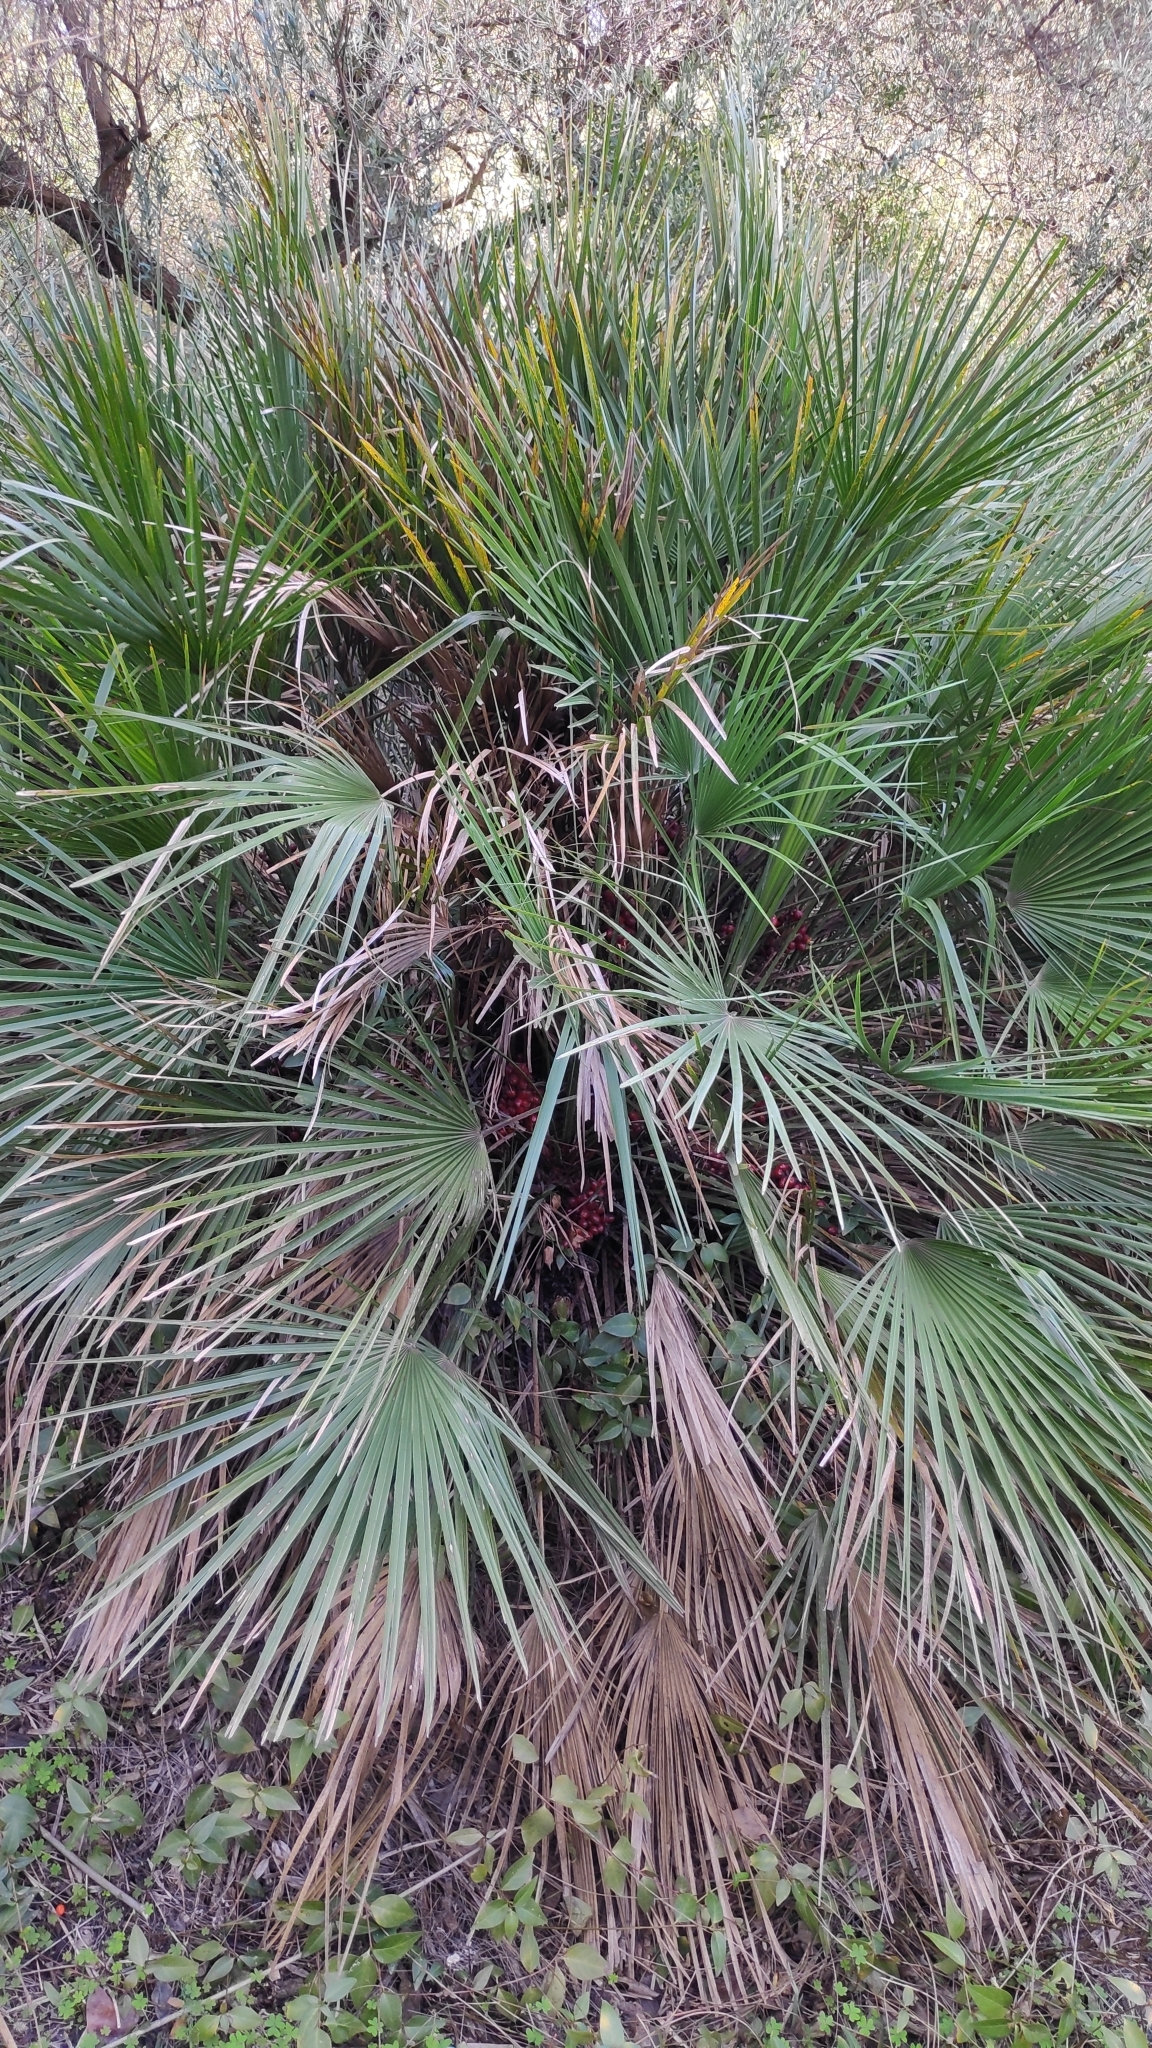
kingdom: Plantae
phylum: Tracheophyta
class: Liliopsida
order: Arecales
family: Arecaceae
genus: Chamaerops
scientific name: Chamaerops humilis
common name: Dwarf fan palm
